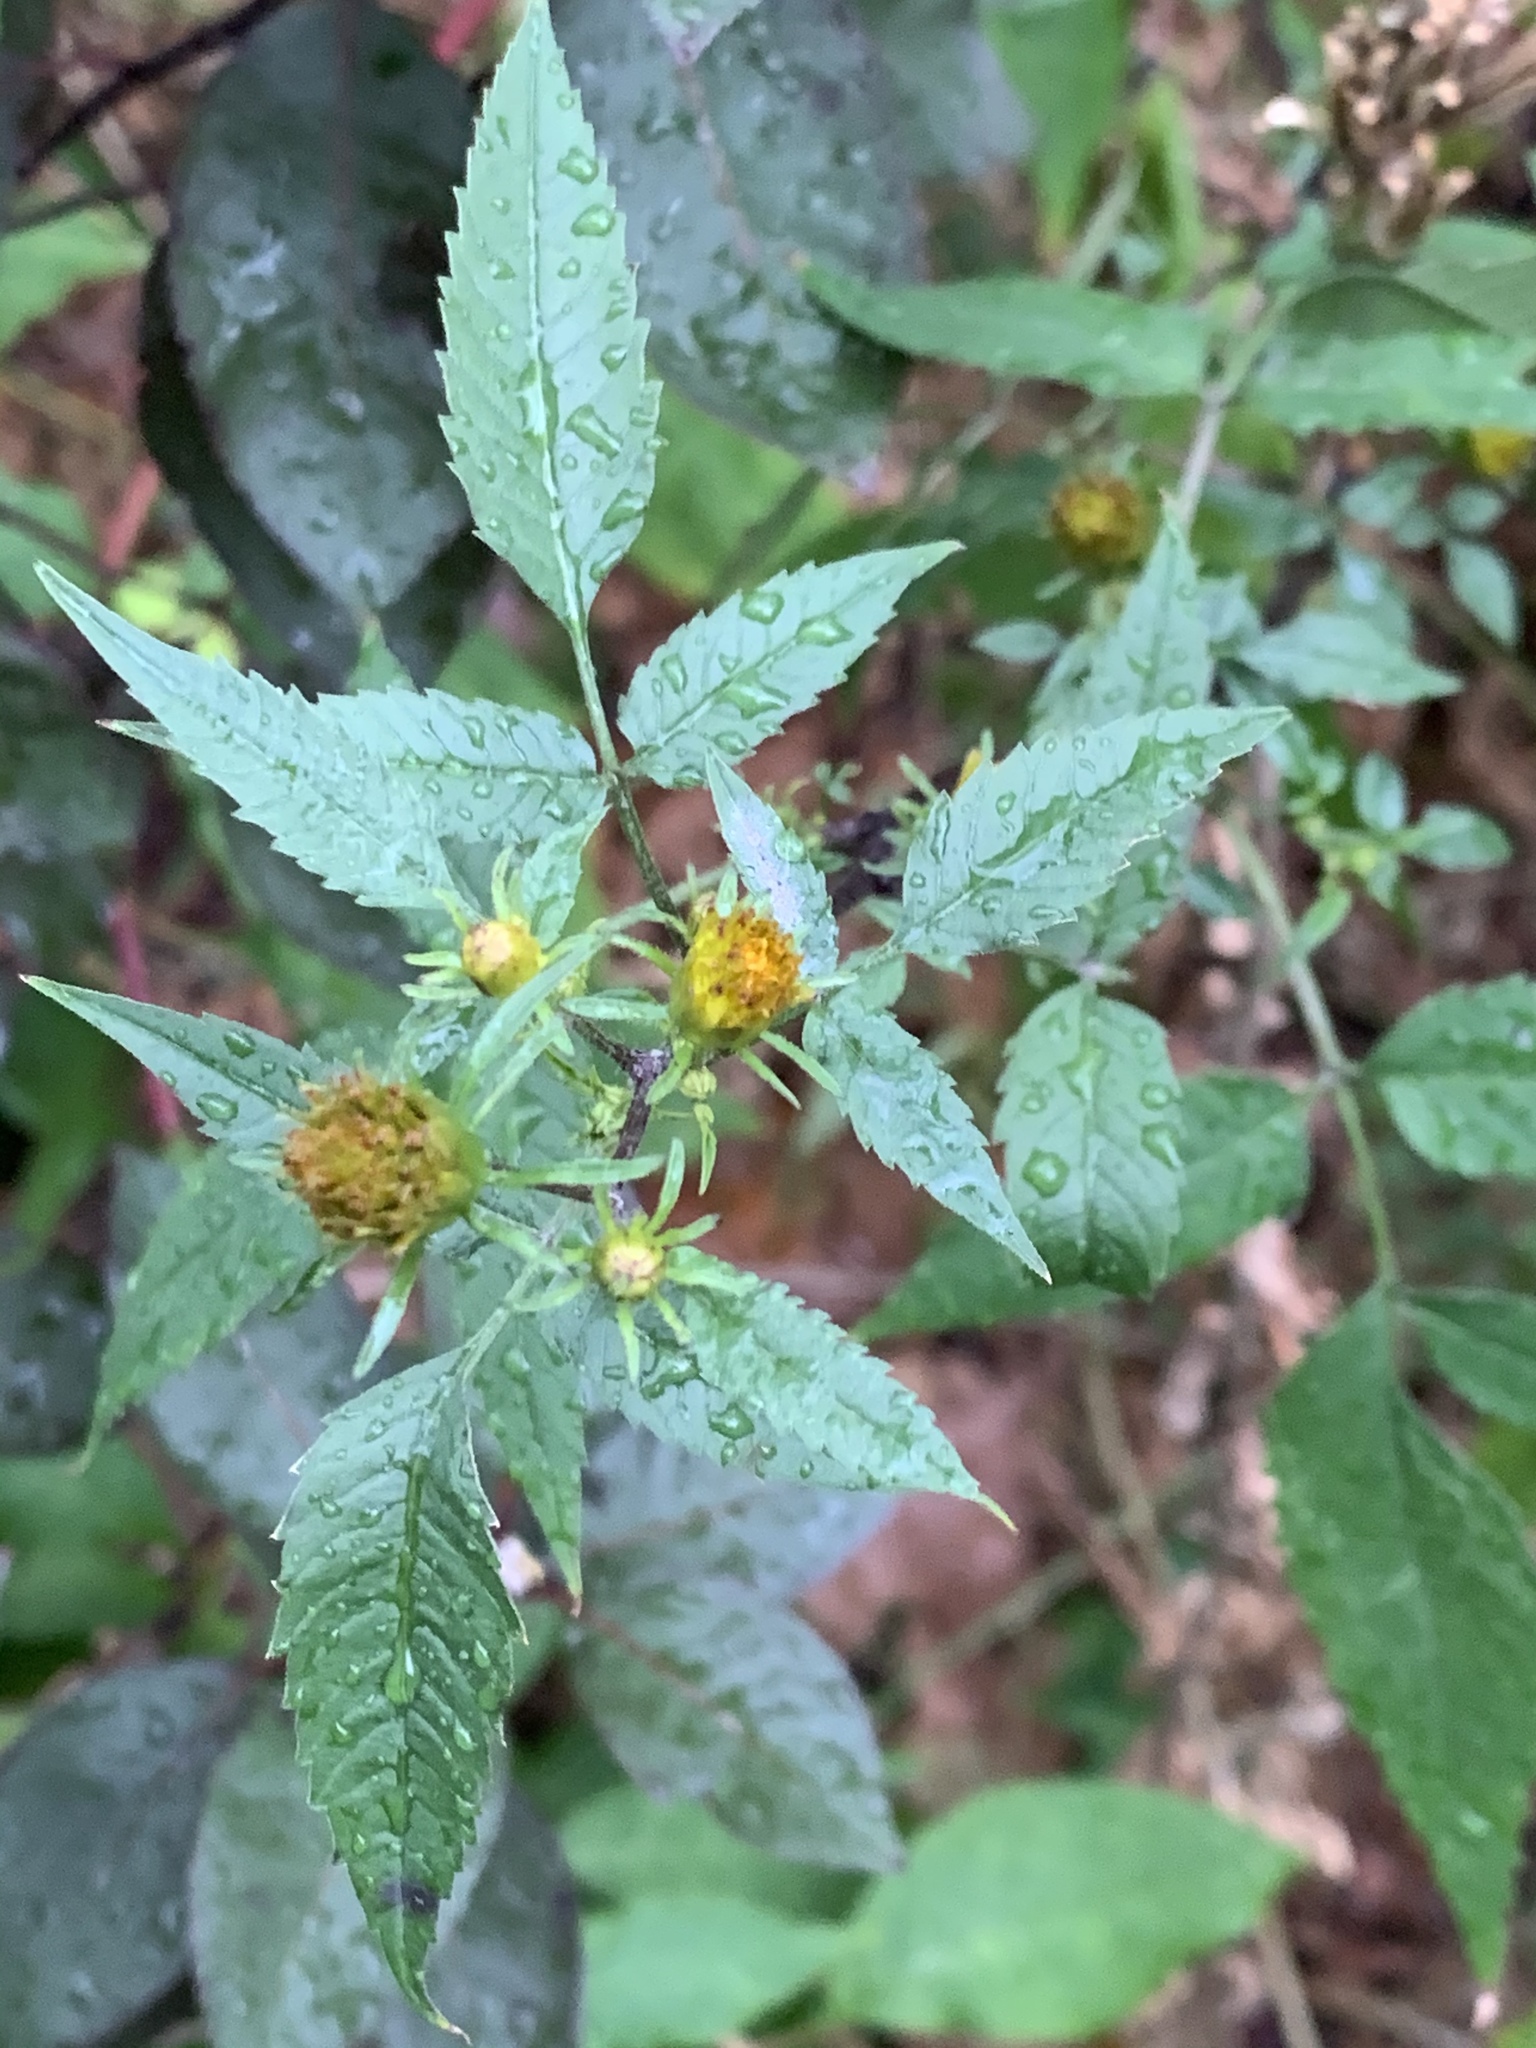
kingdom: Plantae
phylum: Tracheophyta
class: Magnoliopsida
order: Asterales
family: Asteraceae
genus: Bidens
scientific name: Bidens frondosa
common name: Beggarticks
